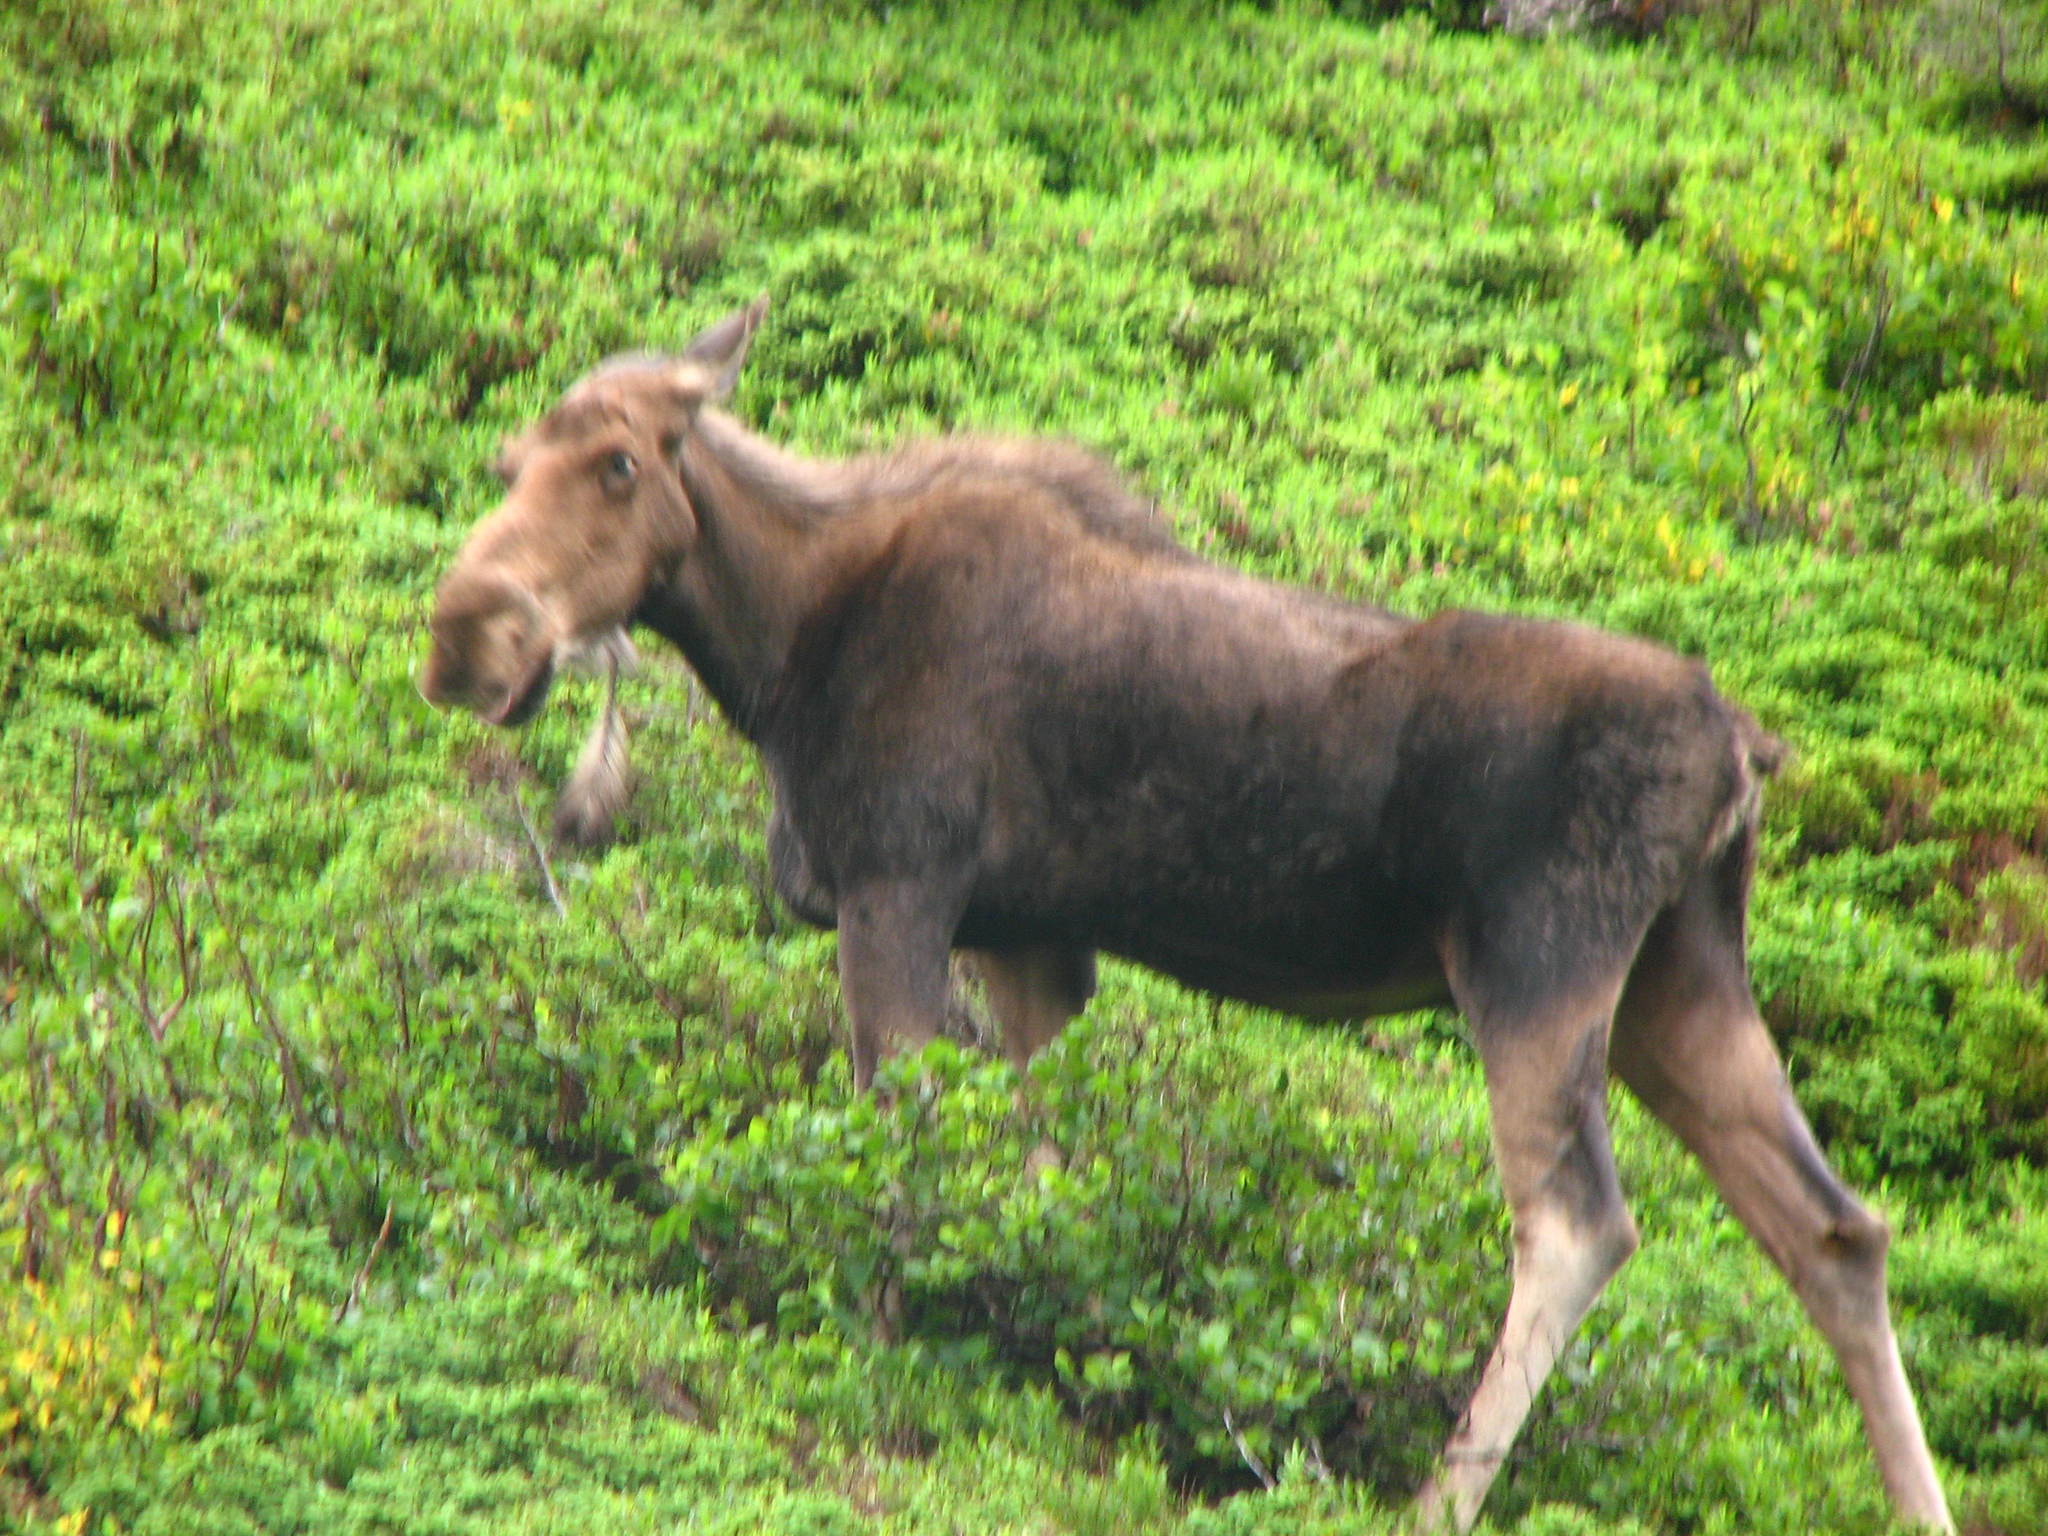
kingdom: Animalia
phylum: Chordata
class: Mammalia
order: Artiodactyla
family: Cervidae
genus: Alces
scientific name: Alces alces
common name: Moose
